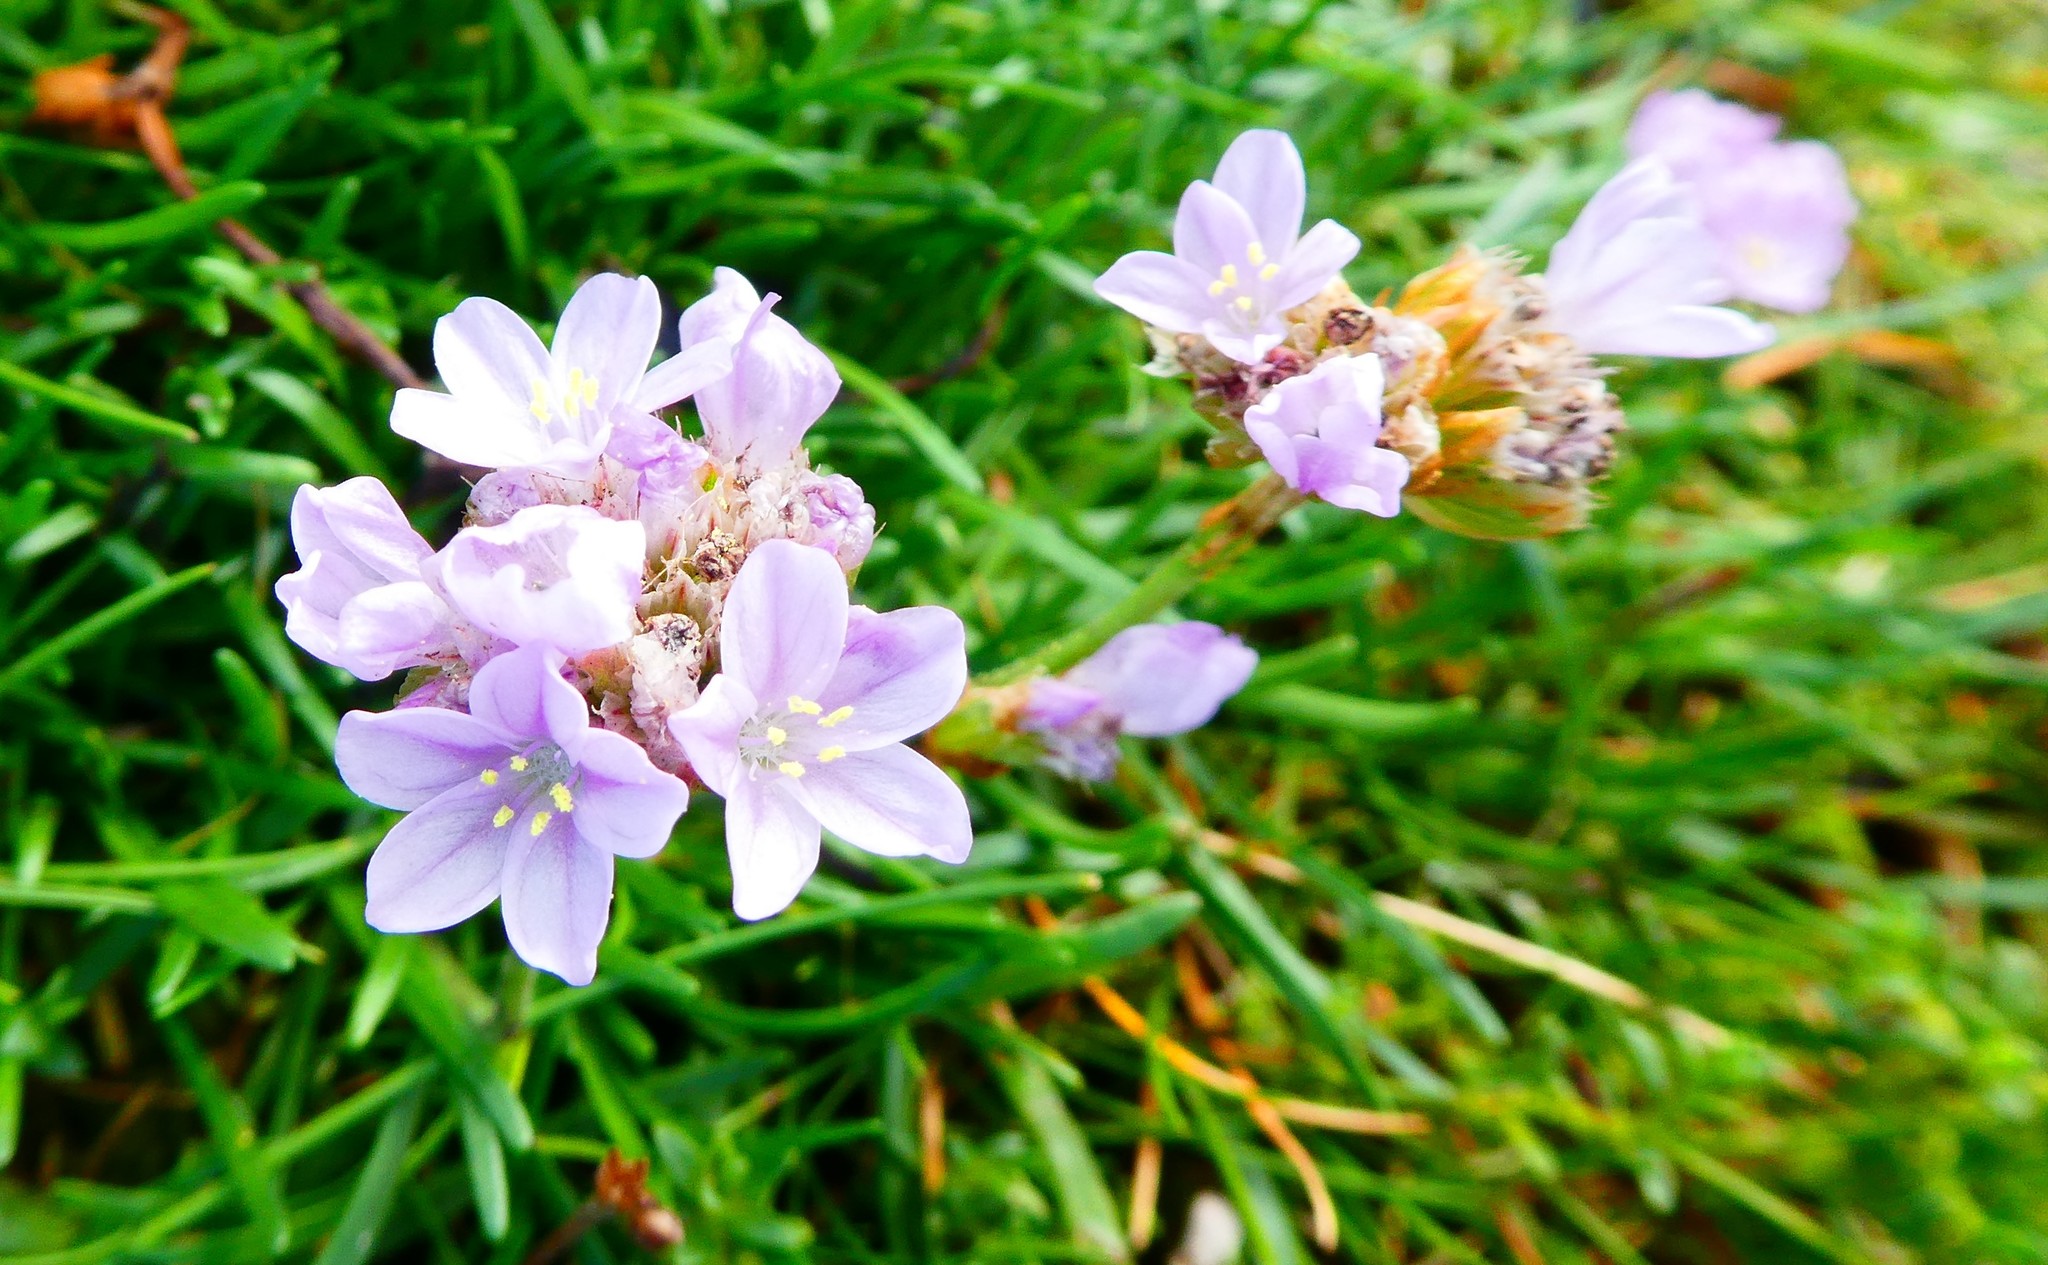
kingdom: Plantae
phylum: Tracheophyta
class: Magnoliopsida
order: Caryophyllales
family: Plumbaginaceae
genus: Armeria
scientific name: Armeria maritima
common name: Thrift
